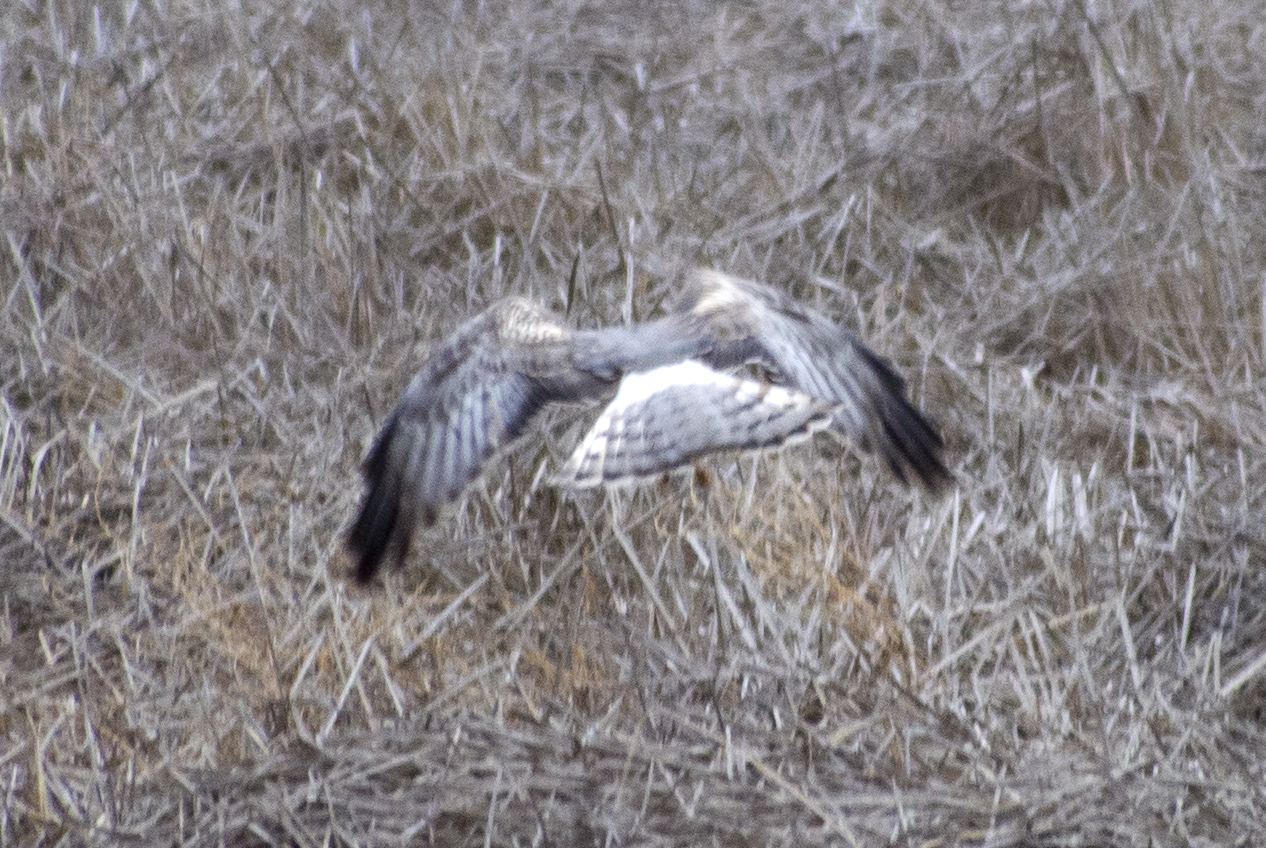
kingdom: Animalia
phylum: Chordata
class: Aves
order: Accipitriformes
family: Accipitridae
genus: Circus
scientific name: Circus cyaneus
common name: Hen harrier
